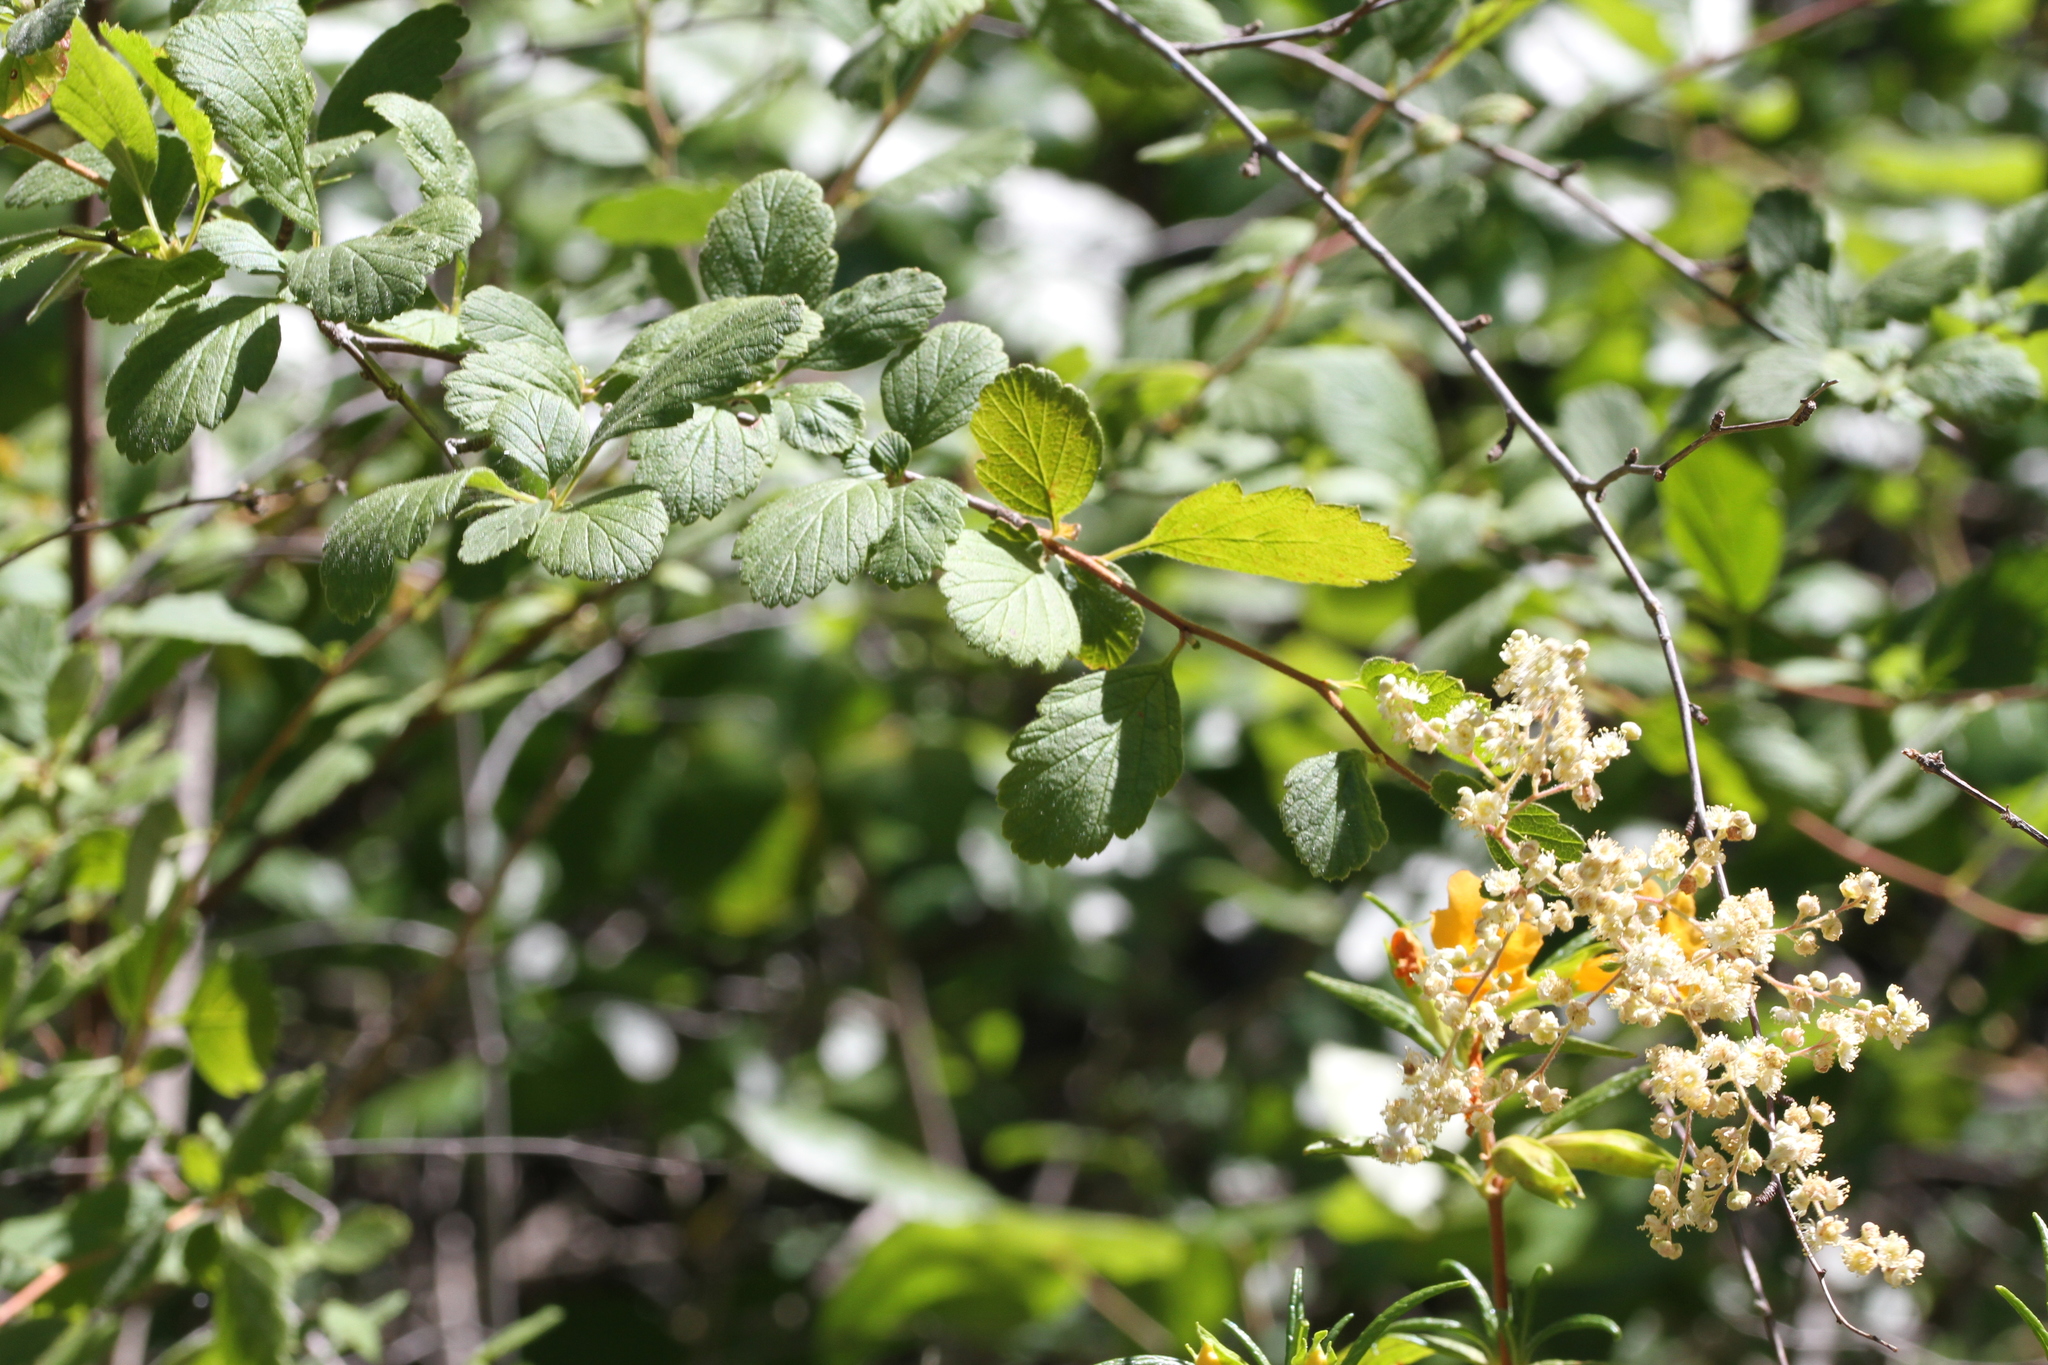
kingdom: Plantae
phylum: Tracheophyta
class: Magnoliopsida
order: Rosales
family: Rosaceae
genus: Holodiscus
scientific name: Holodiscus discolor
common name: Oceanspray
